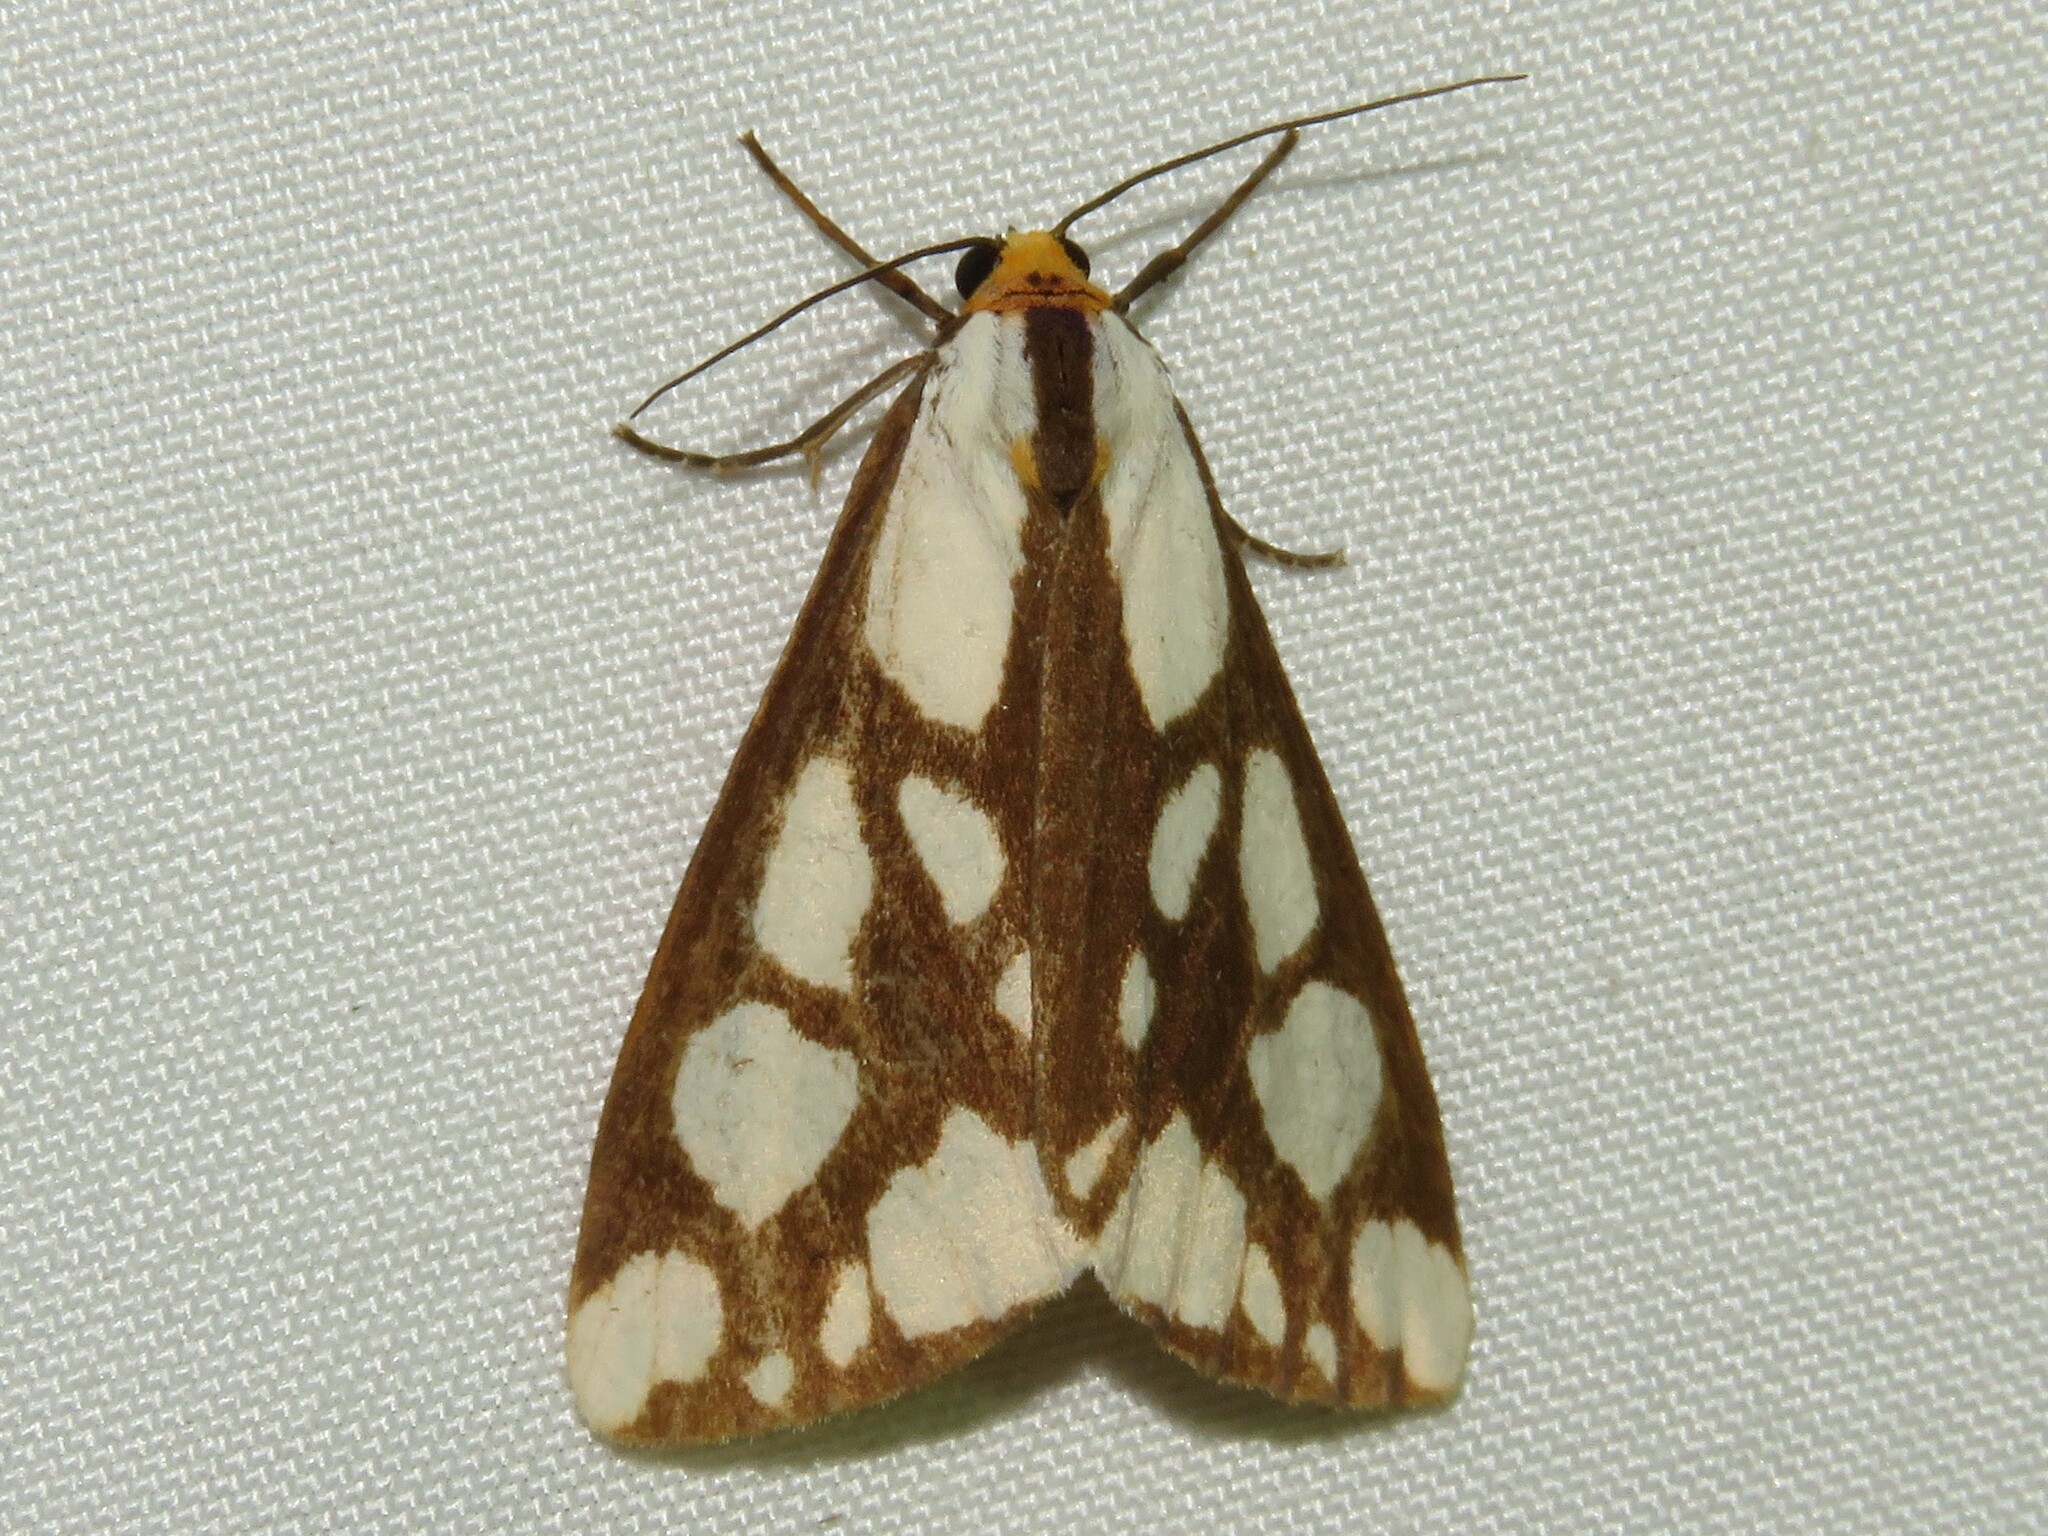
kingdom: Animalia
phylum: Arthropoda
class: Insecta
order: Lepidoptera
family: Erebidae
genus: Haploa
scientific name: Haploa confusa
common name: Confused haploa moth
